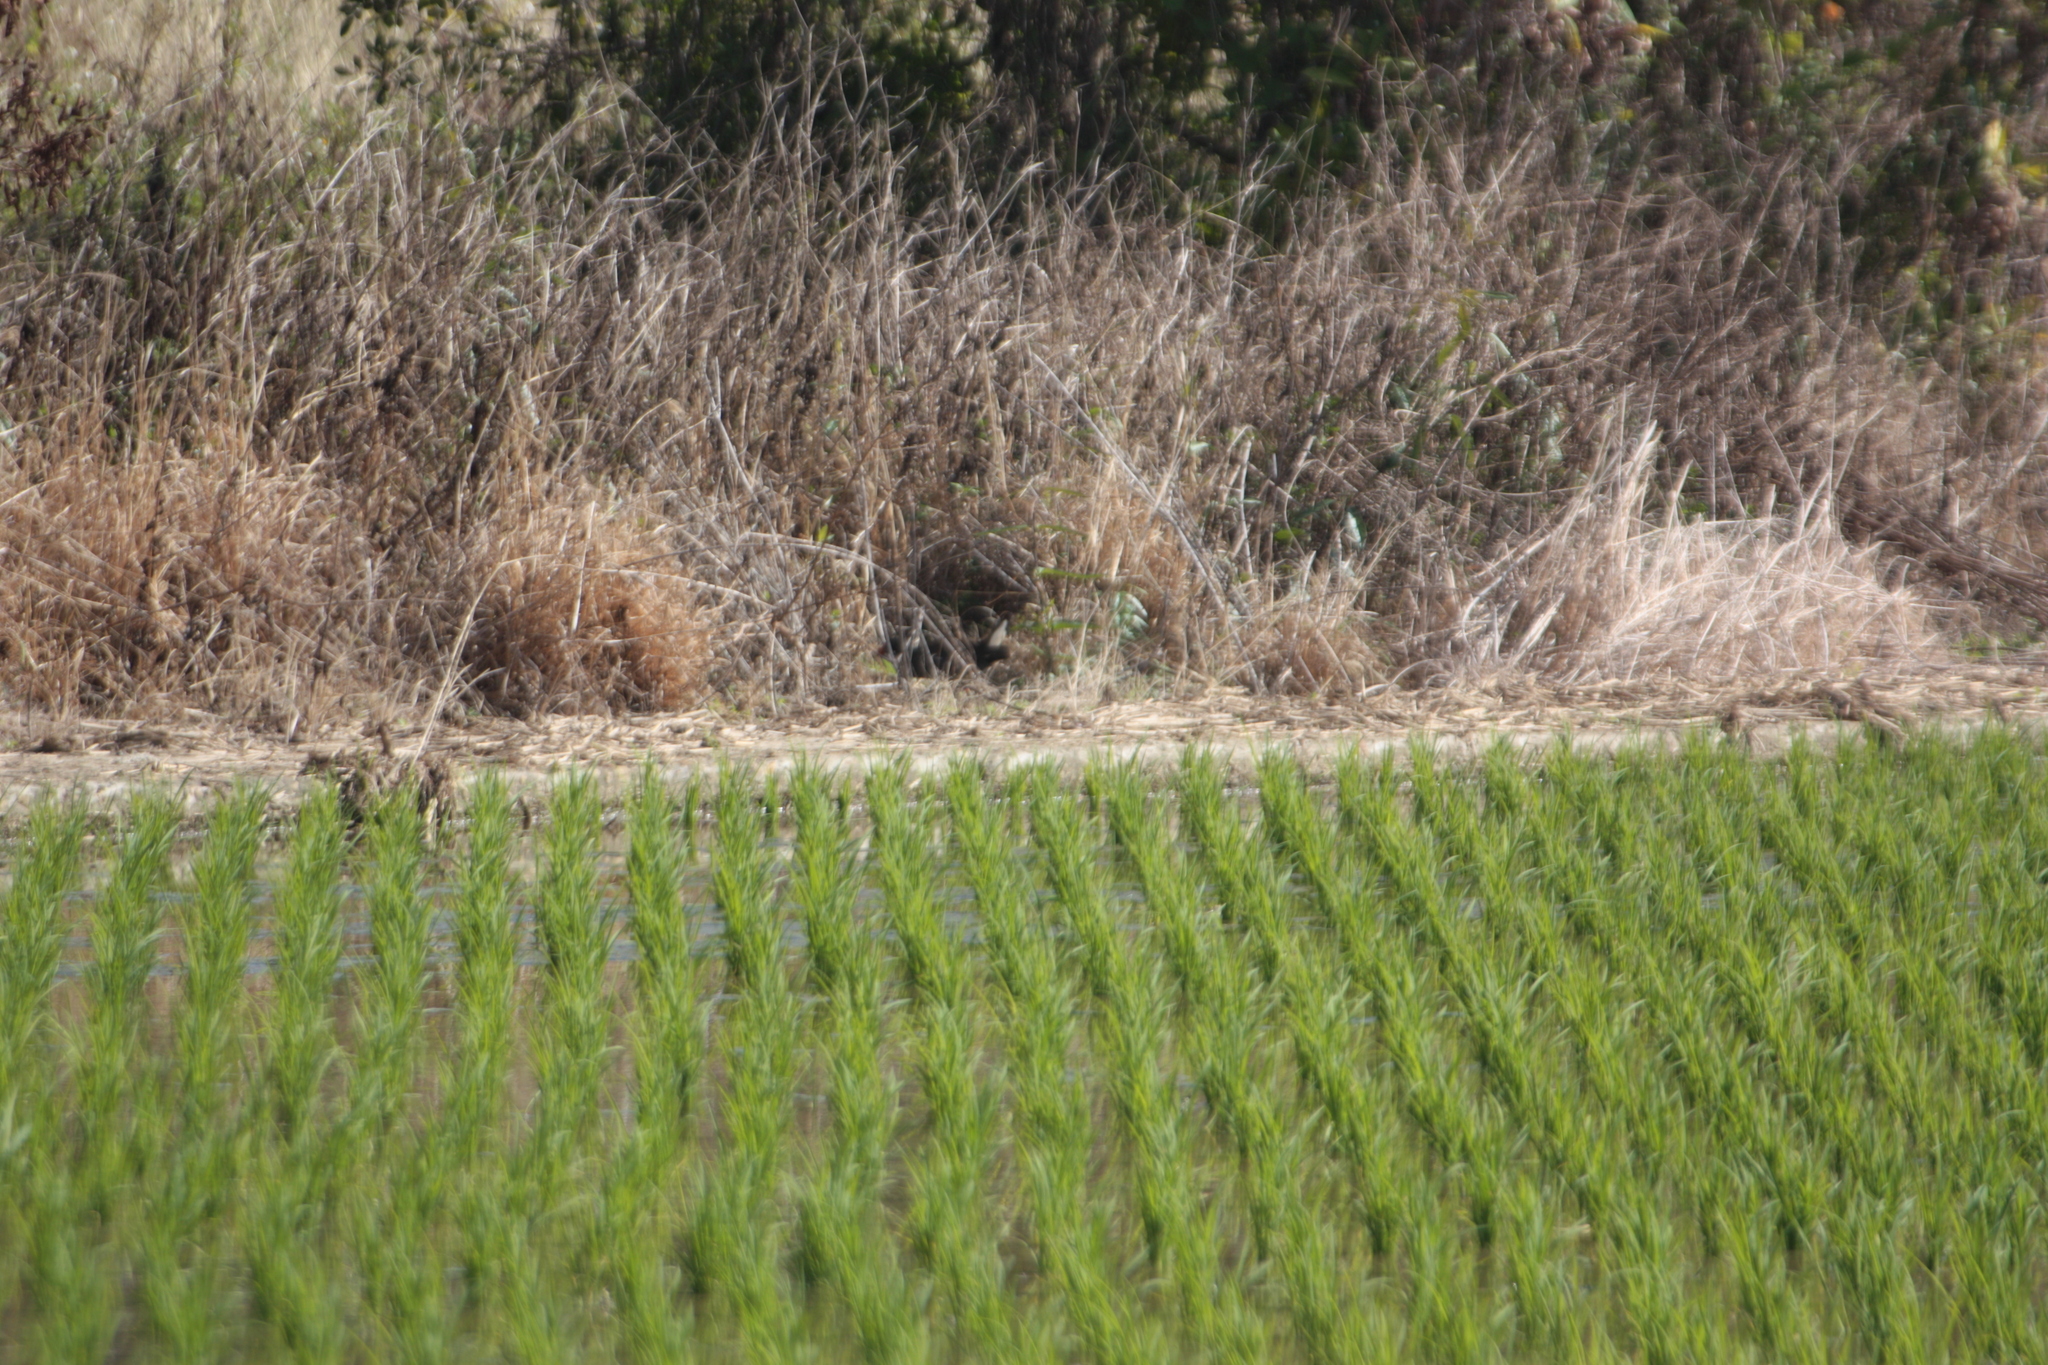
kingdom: Animalia
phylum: Chordata
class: Aves
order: Gruiformes
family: Rallidae
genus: Gallinula
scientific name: Gallinula chloropus
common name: Common moorhen
